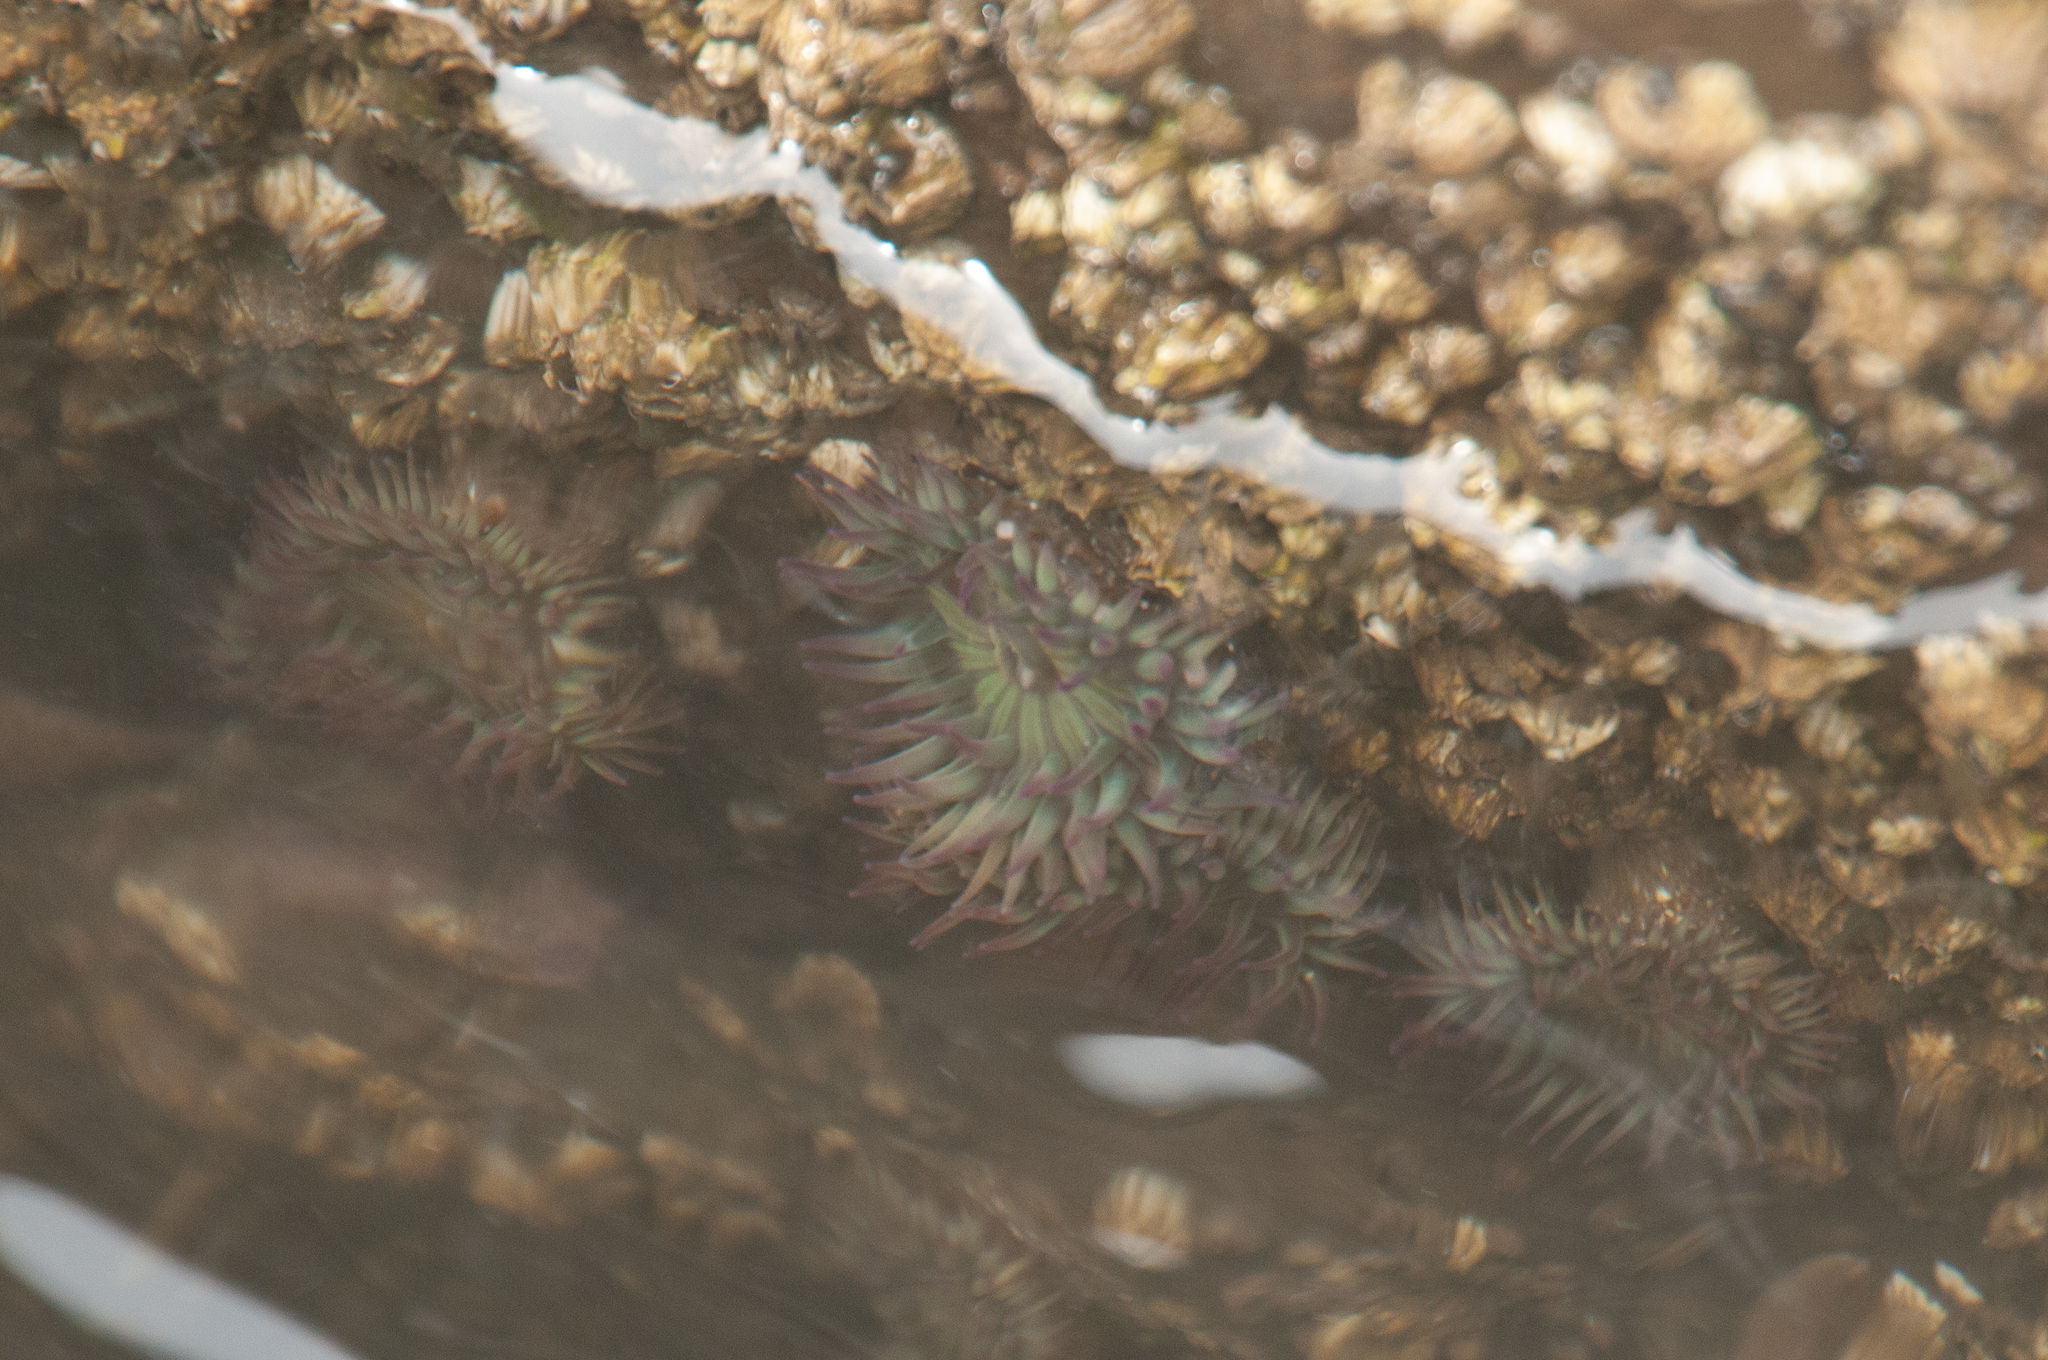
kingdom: Animalia
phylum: Cnidaria
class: Anthozoa
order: Actiniaria
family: Actiniidae
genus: Anthopleura
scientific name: Anthopleura elegantissima
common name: Clonal anemone
